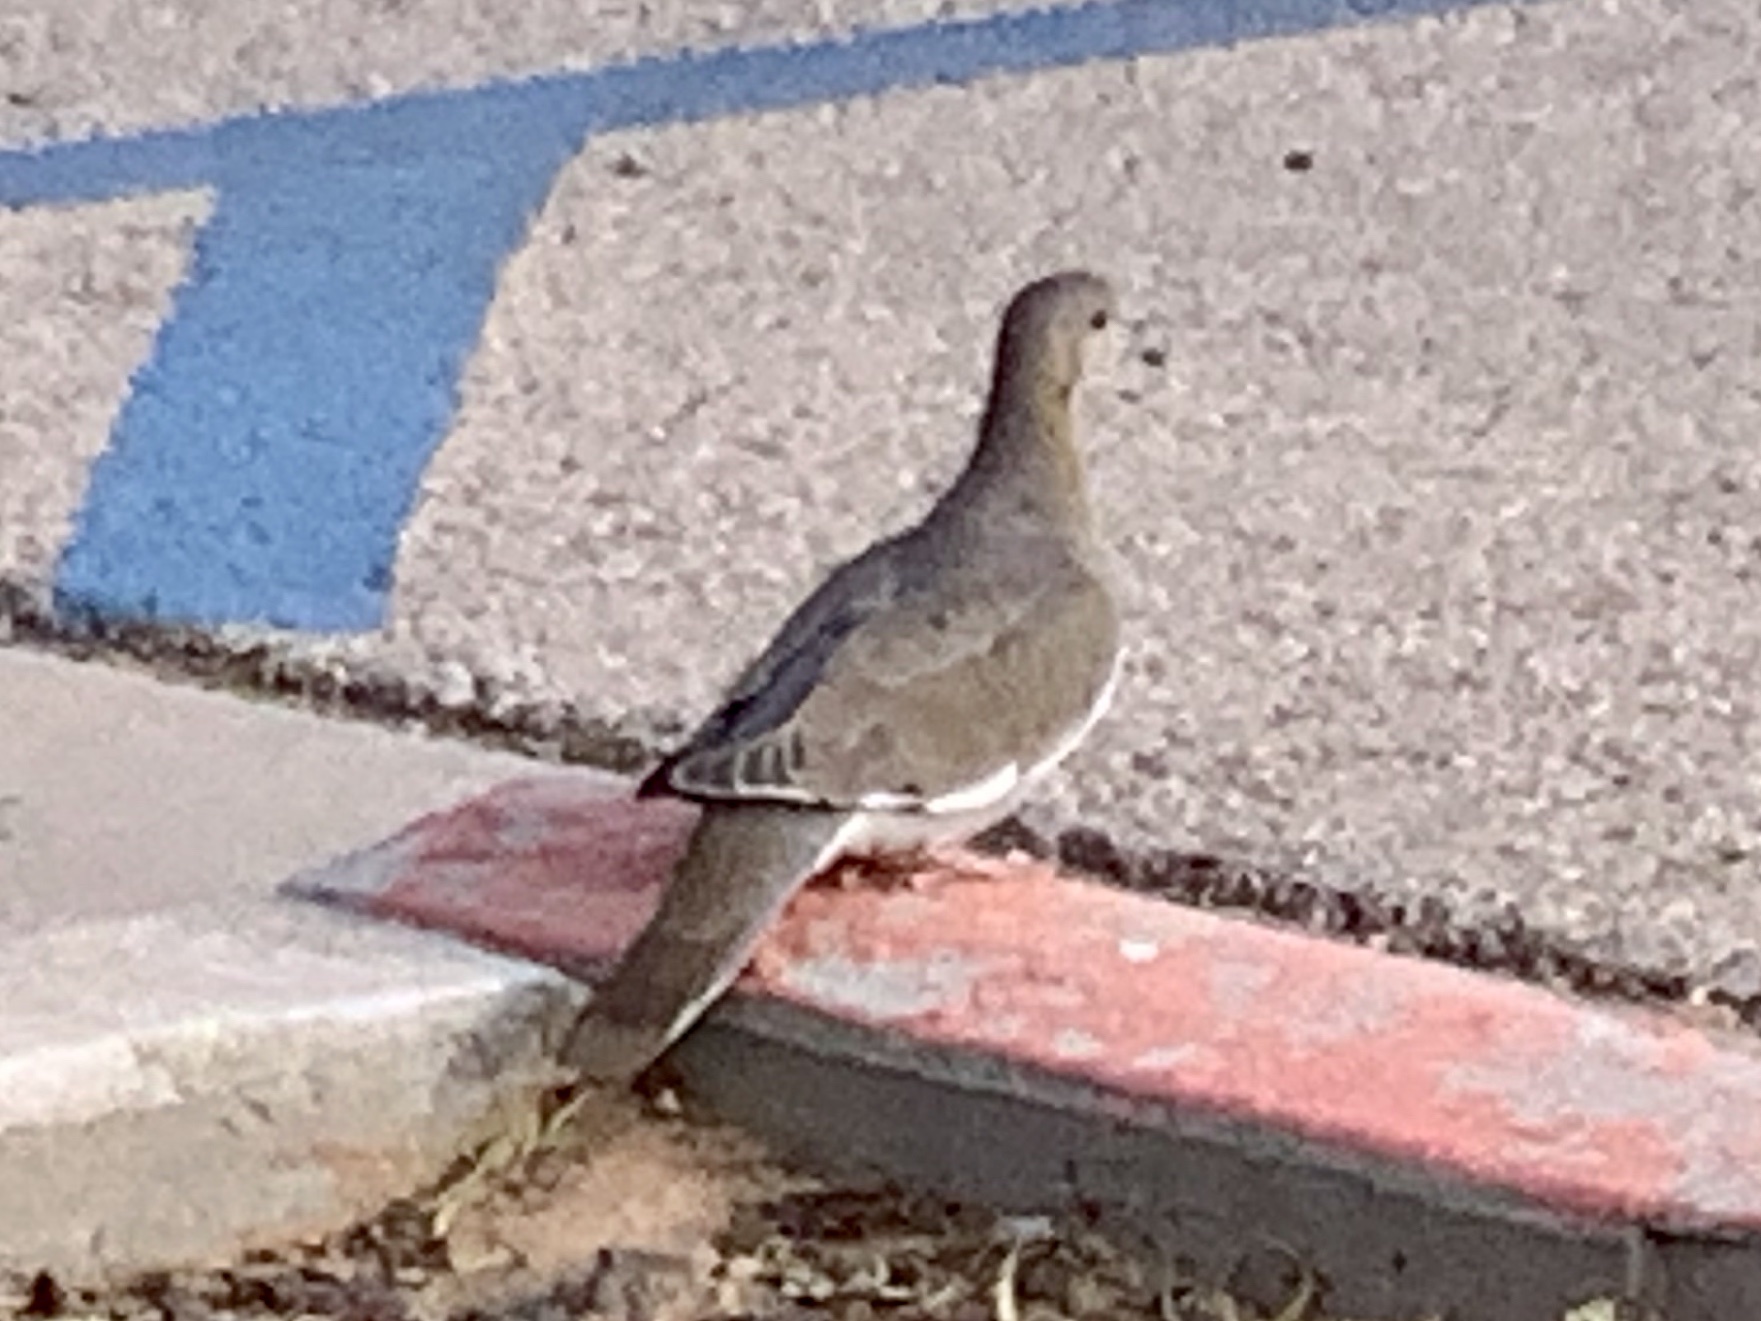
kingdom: Animalia
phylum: Chordata
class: Aves
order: Columbiformes
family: Columbidae
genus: Zenaida
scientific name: Zenaida asiatica
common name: White-winged dove
